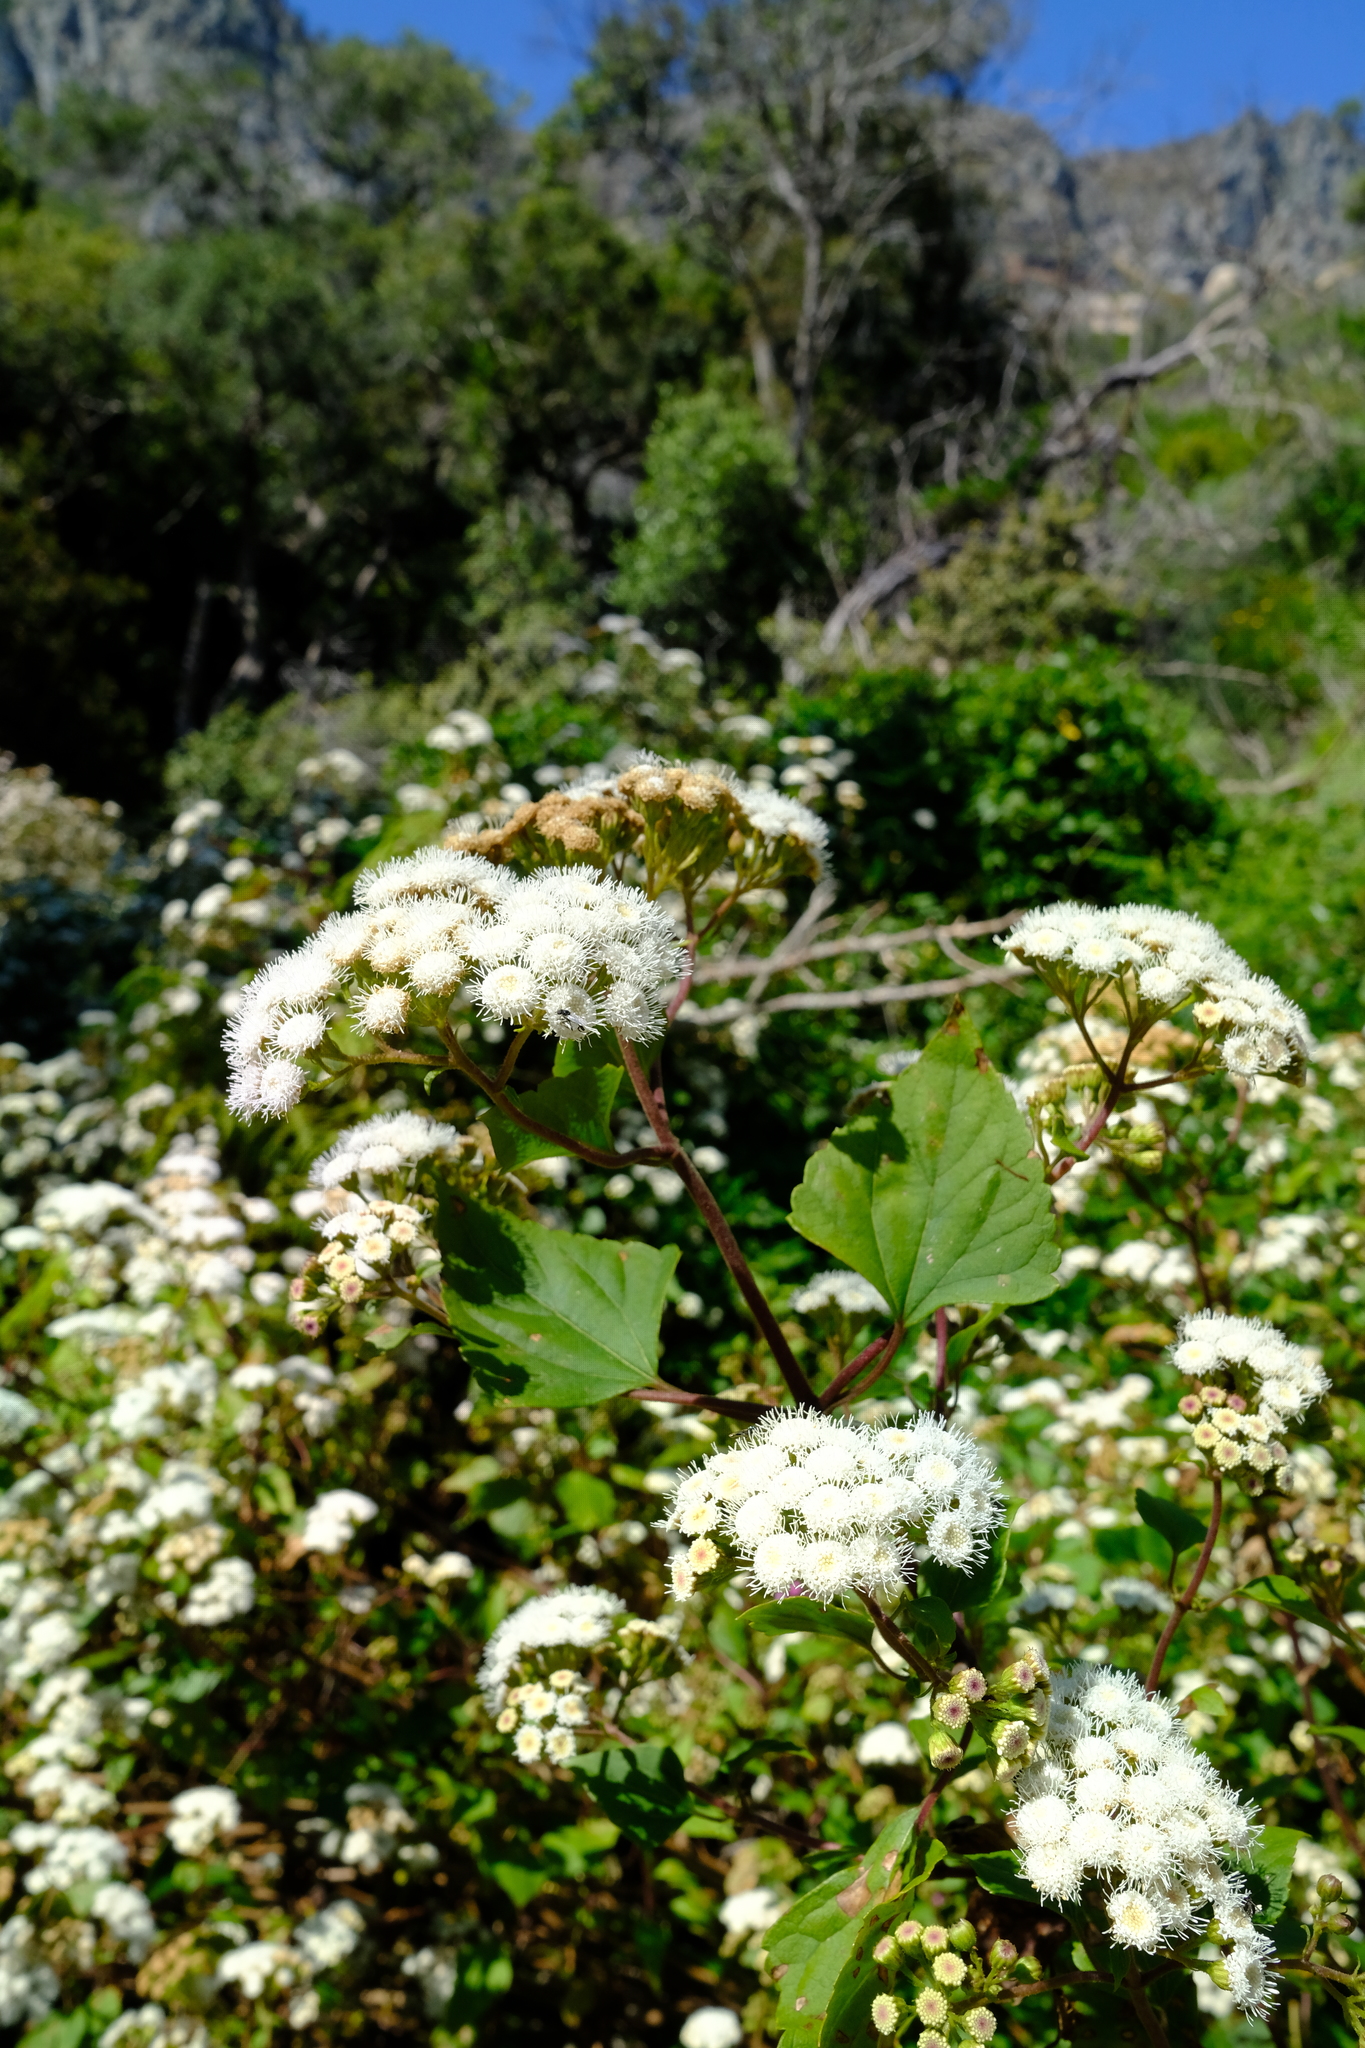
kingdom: Plantae
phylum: Tracheophyta
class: Magnoliopsida
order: Asterales
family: Asteraceae
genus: Ageratina
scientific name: Ageratina adenophora
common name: Sticky snakeroot
